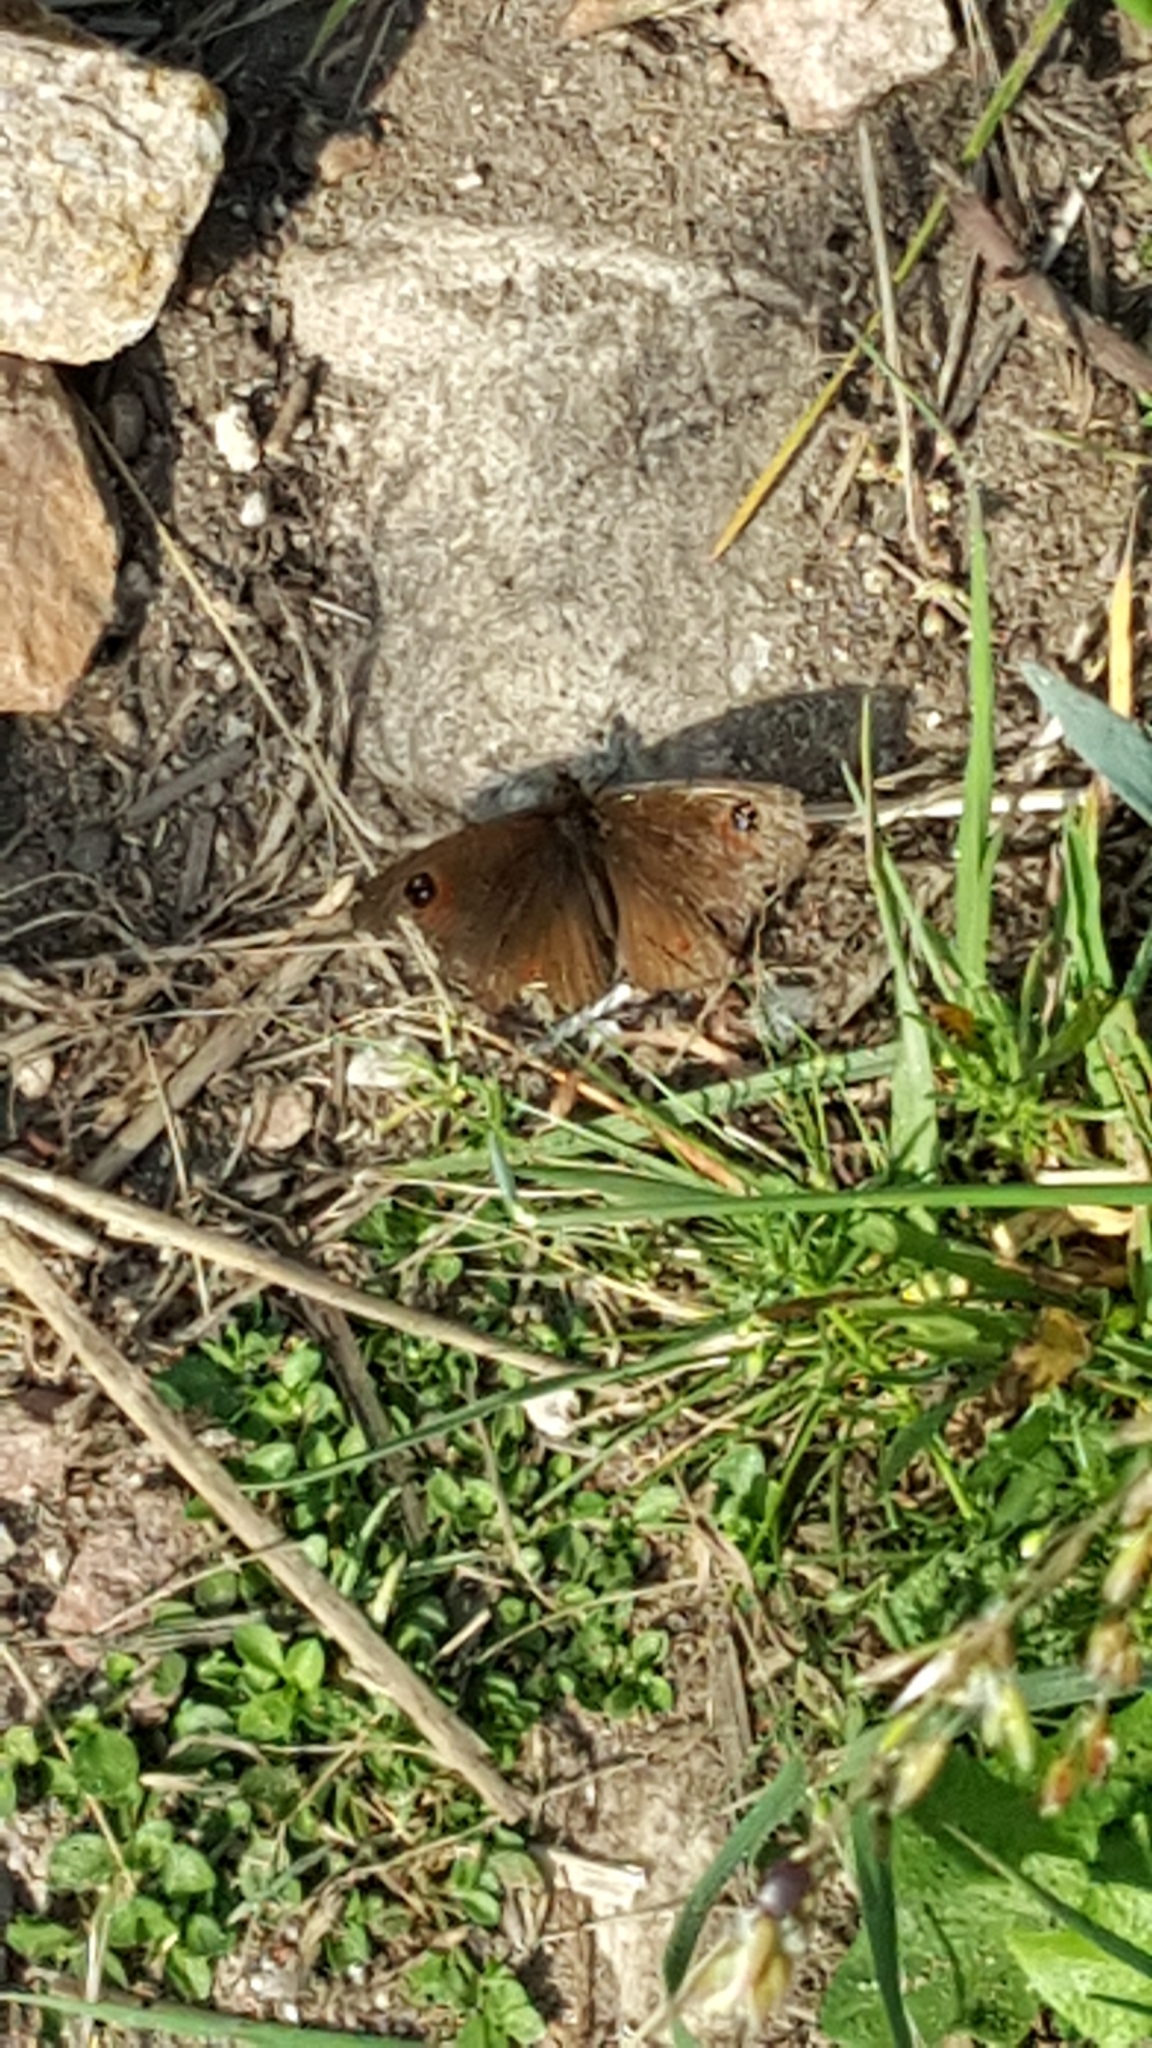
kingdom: Animalia
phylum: Arthropoda
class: Insecta
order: Lepidoptera
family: Nymphalidae
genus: Erebia
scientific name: Erebia
